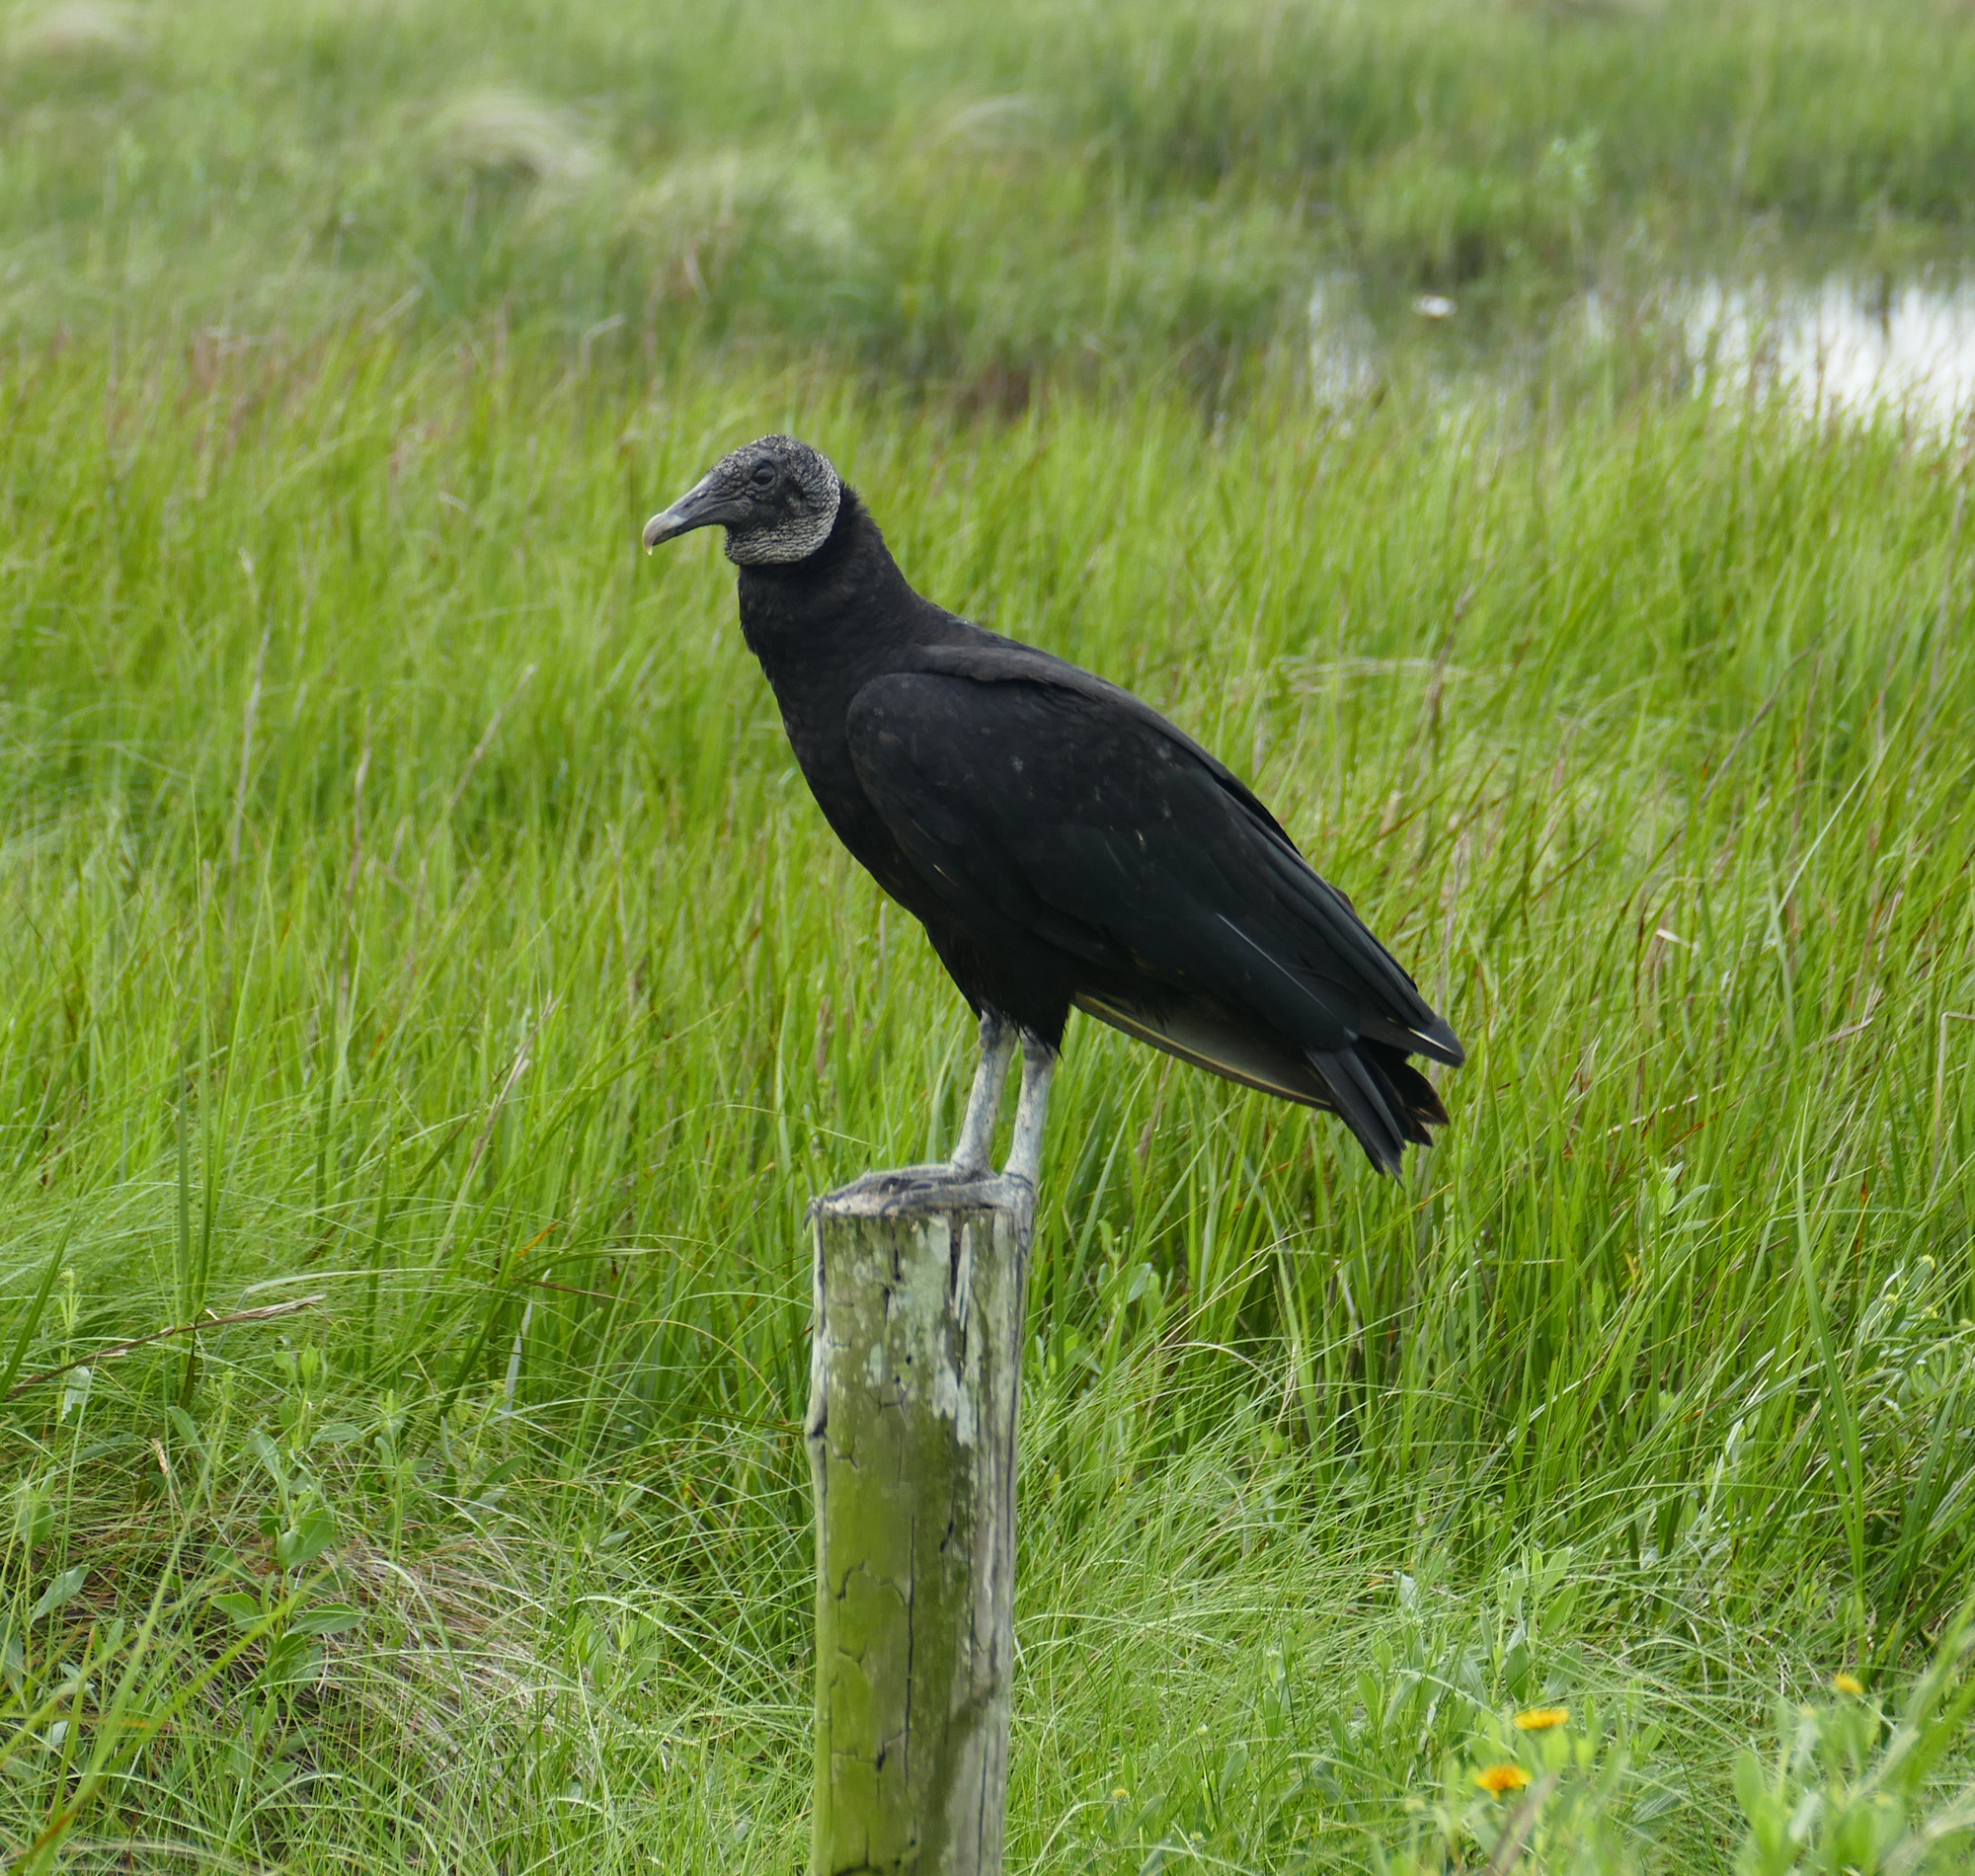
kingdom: Animalia
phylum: Chordata
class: Aves
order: Accipitriformes
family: Cathartidae
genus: Coragyps
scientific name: Coragyps atratus
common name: Black vulture
